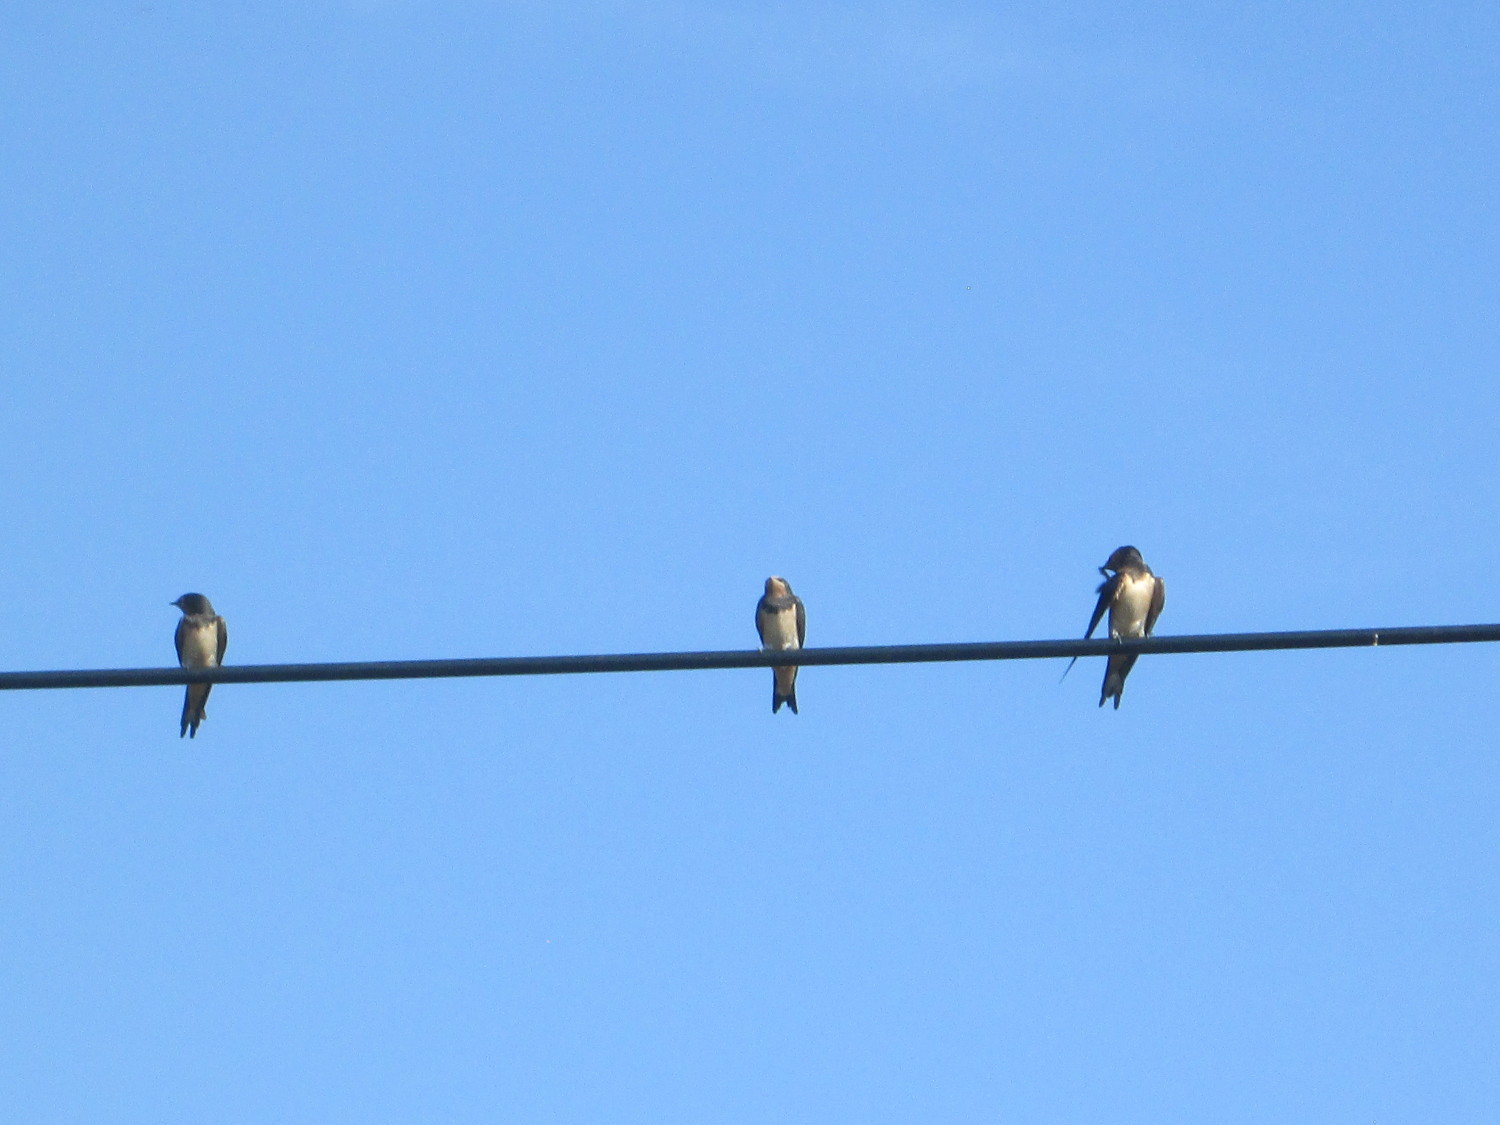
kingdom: Animalia
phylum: Chordata
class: Aves
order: Passeriformes
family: Hirundinidae
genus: Hirundo
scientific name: Hirundo rustica
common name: Barn swallow
